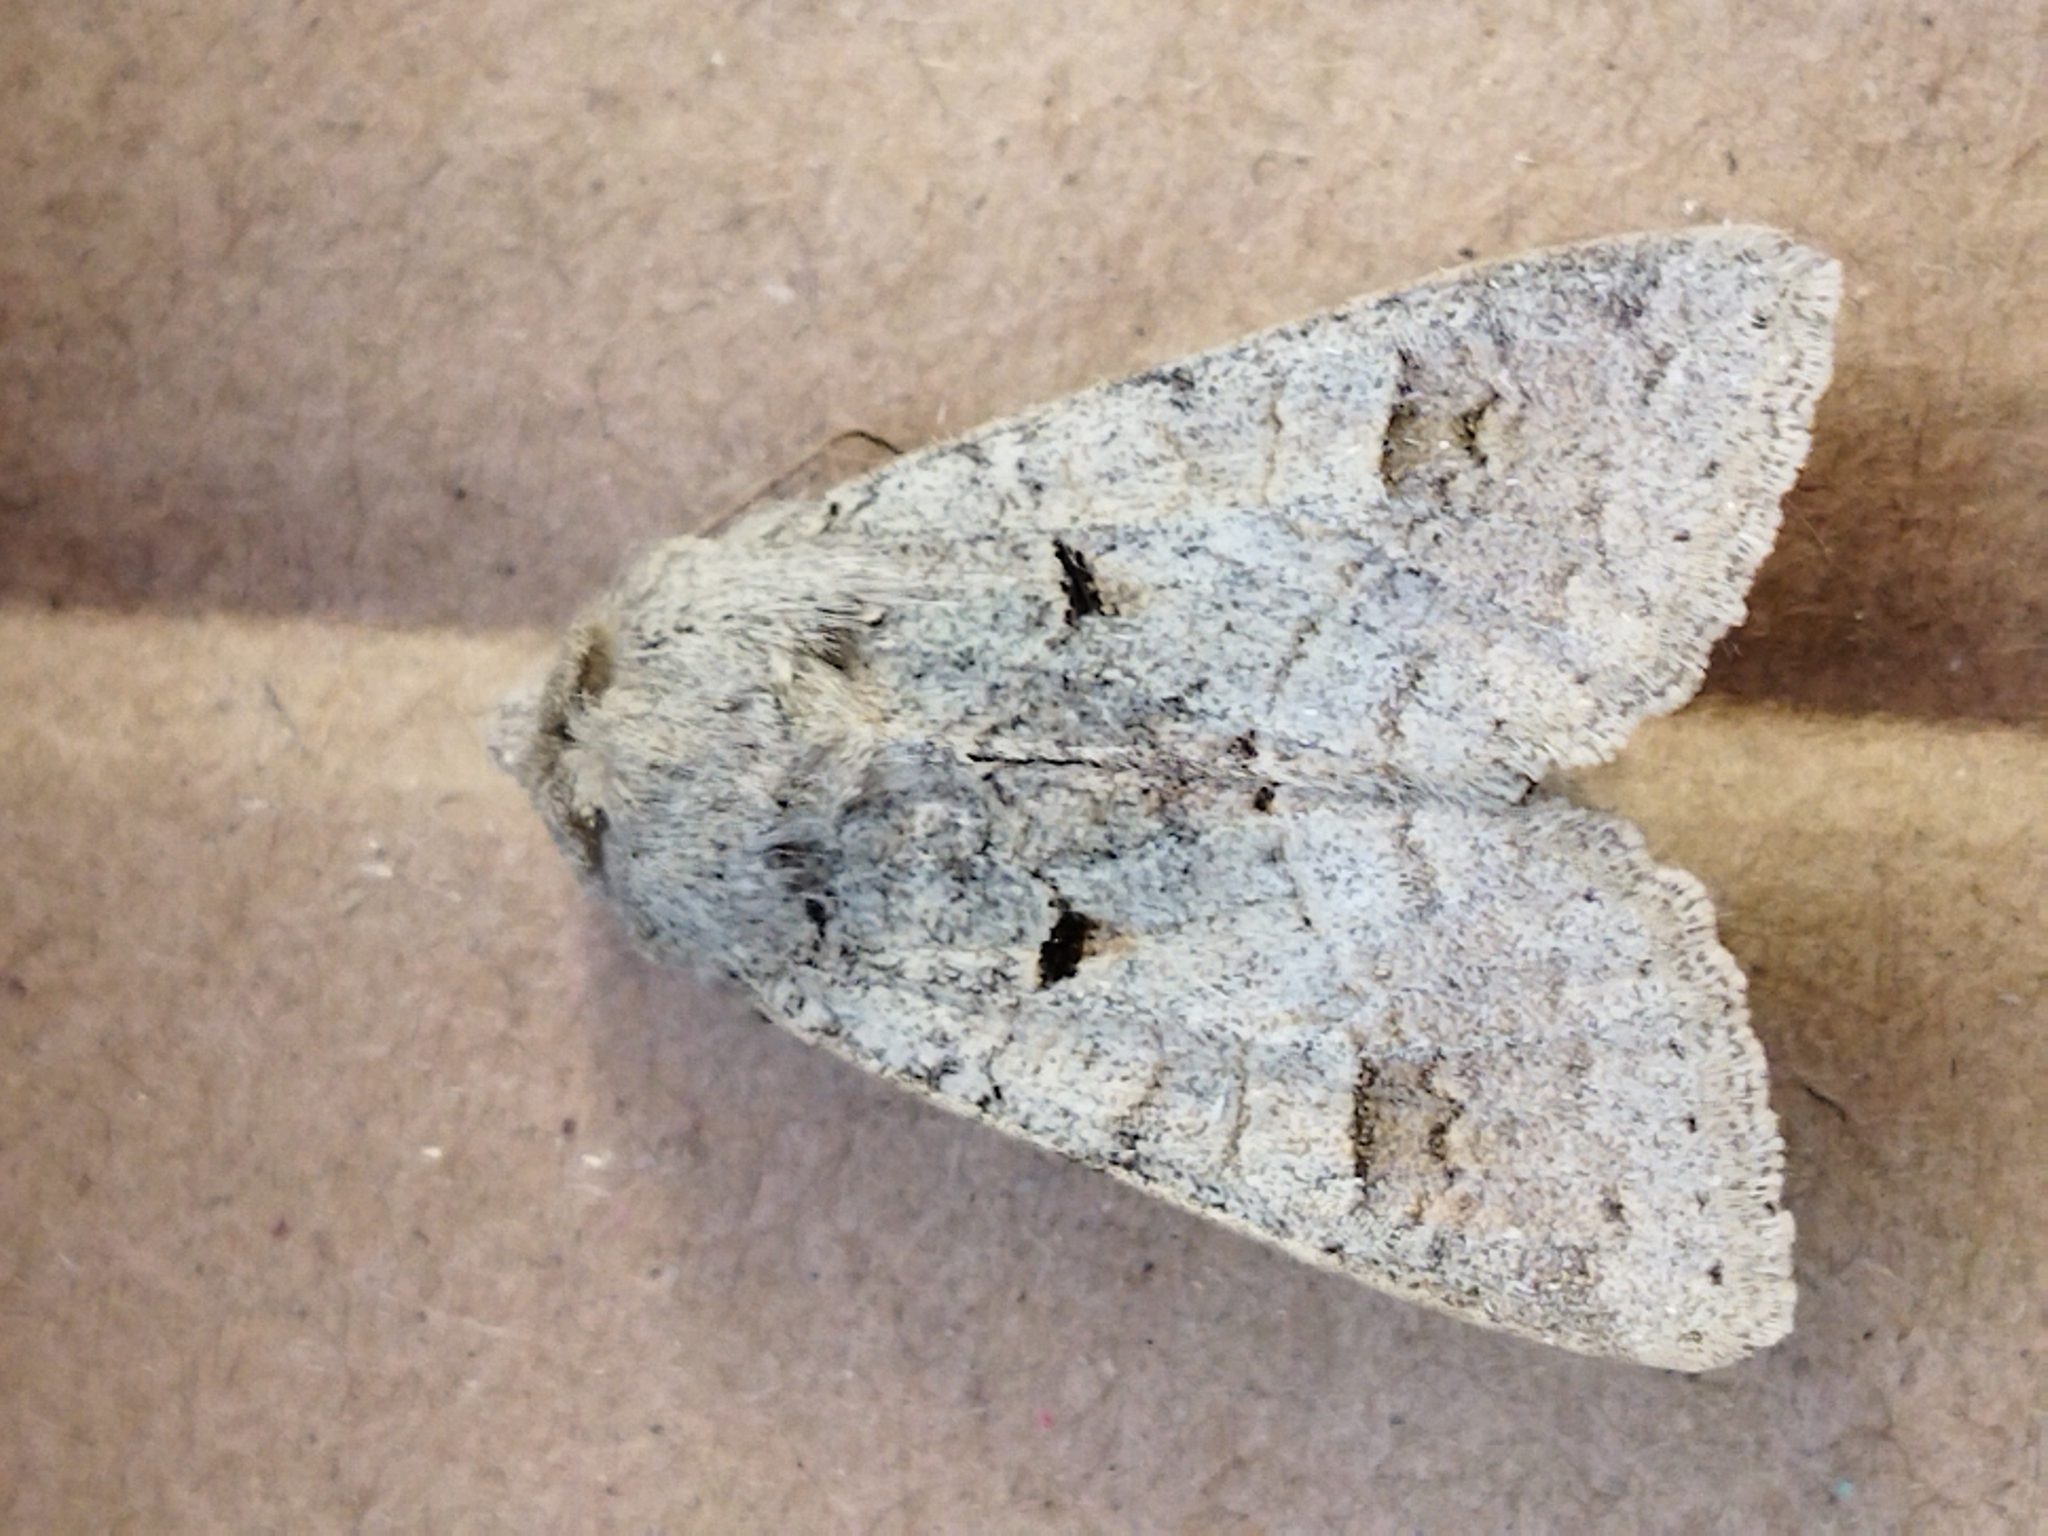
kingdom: Animalia
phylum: Arthropoda
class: Insecta
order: Lepidoptera
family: Noctuidae
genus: Ammoconia
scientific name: Ammoconia caecimacula
